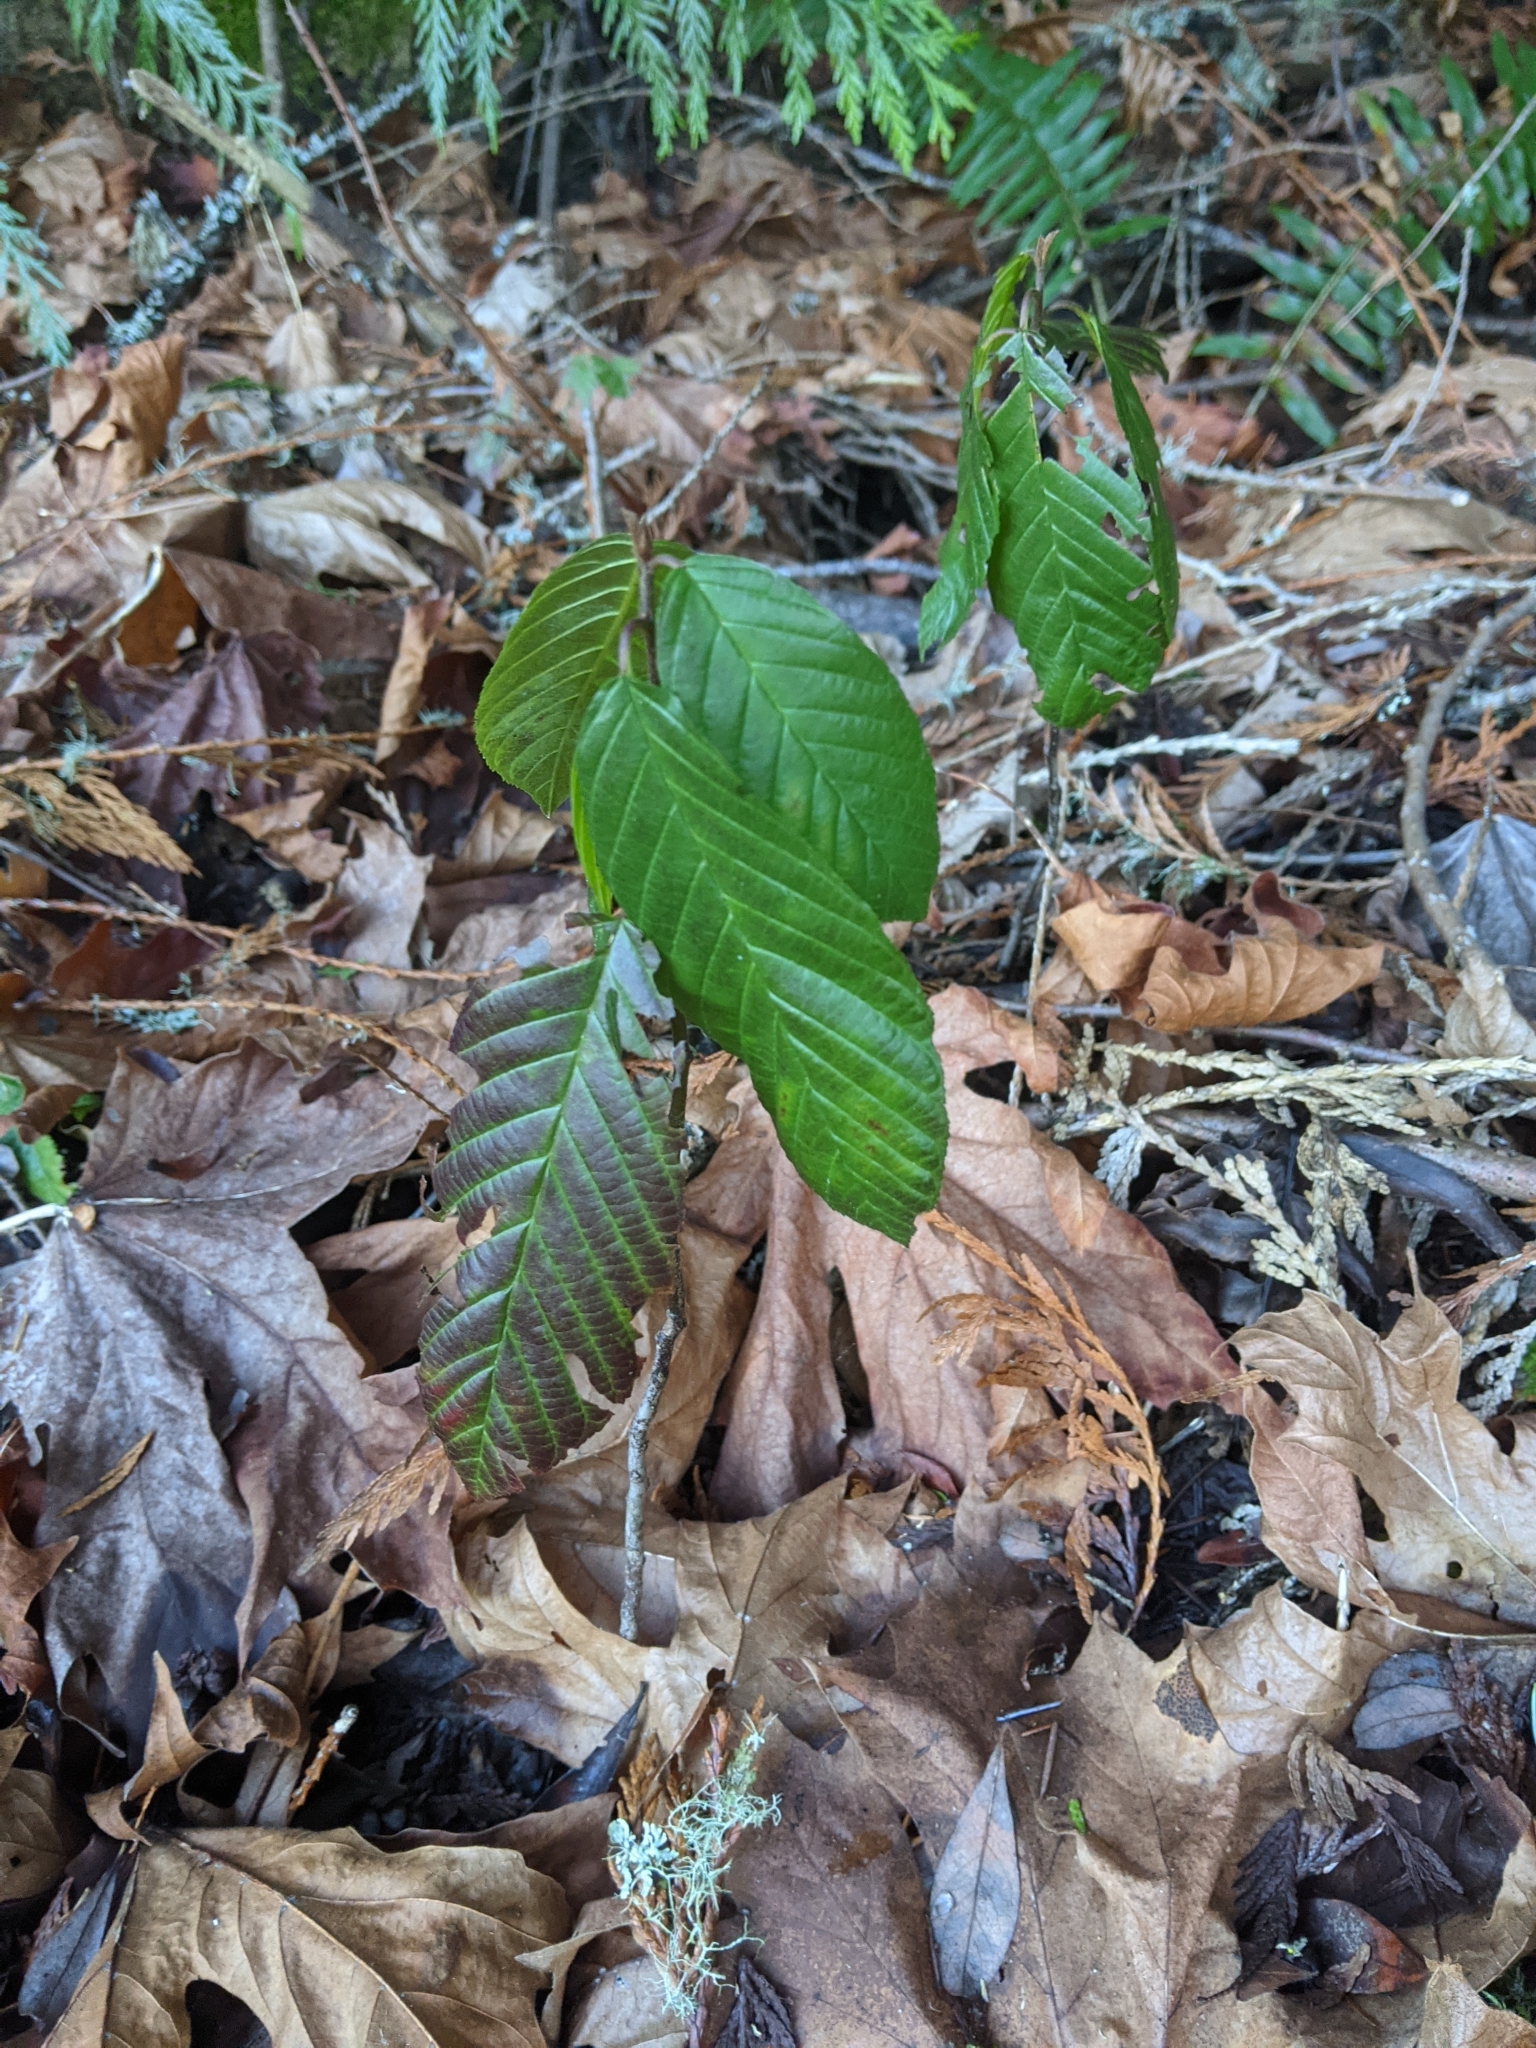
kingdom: Plantae
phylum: Tracheophyta
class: Magnoliopsida
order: Rosales
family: Rhamnaceae
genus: Frangula
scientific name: Frangula purshiana
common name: Cascara buckthorn
